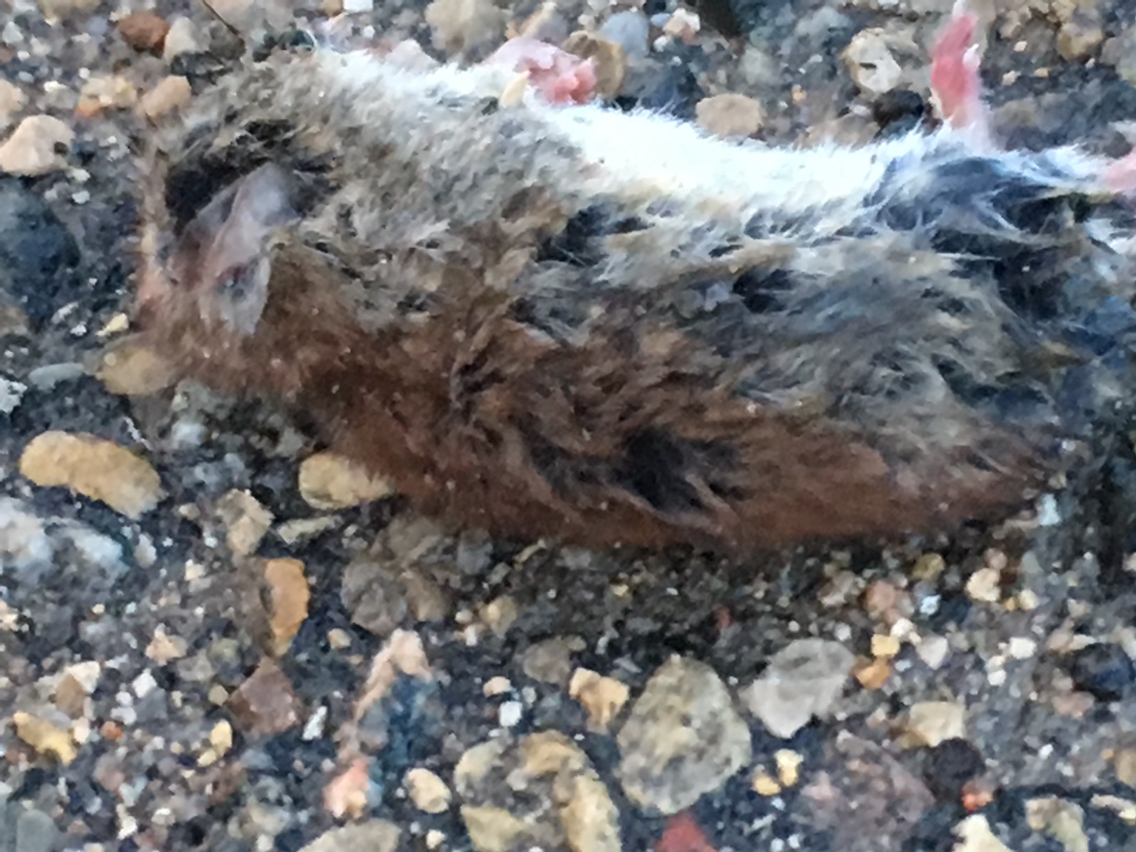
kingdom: Animalia
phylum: Chordata
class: Mammalia
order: Rodentia
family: Cricetidae
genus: Myodes
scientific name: Myodes gapperi
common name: Southern red-backed vole
